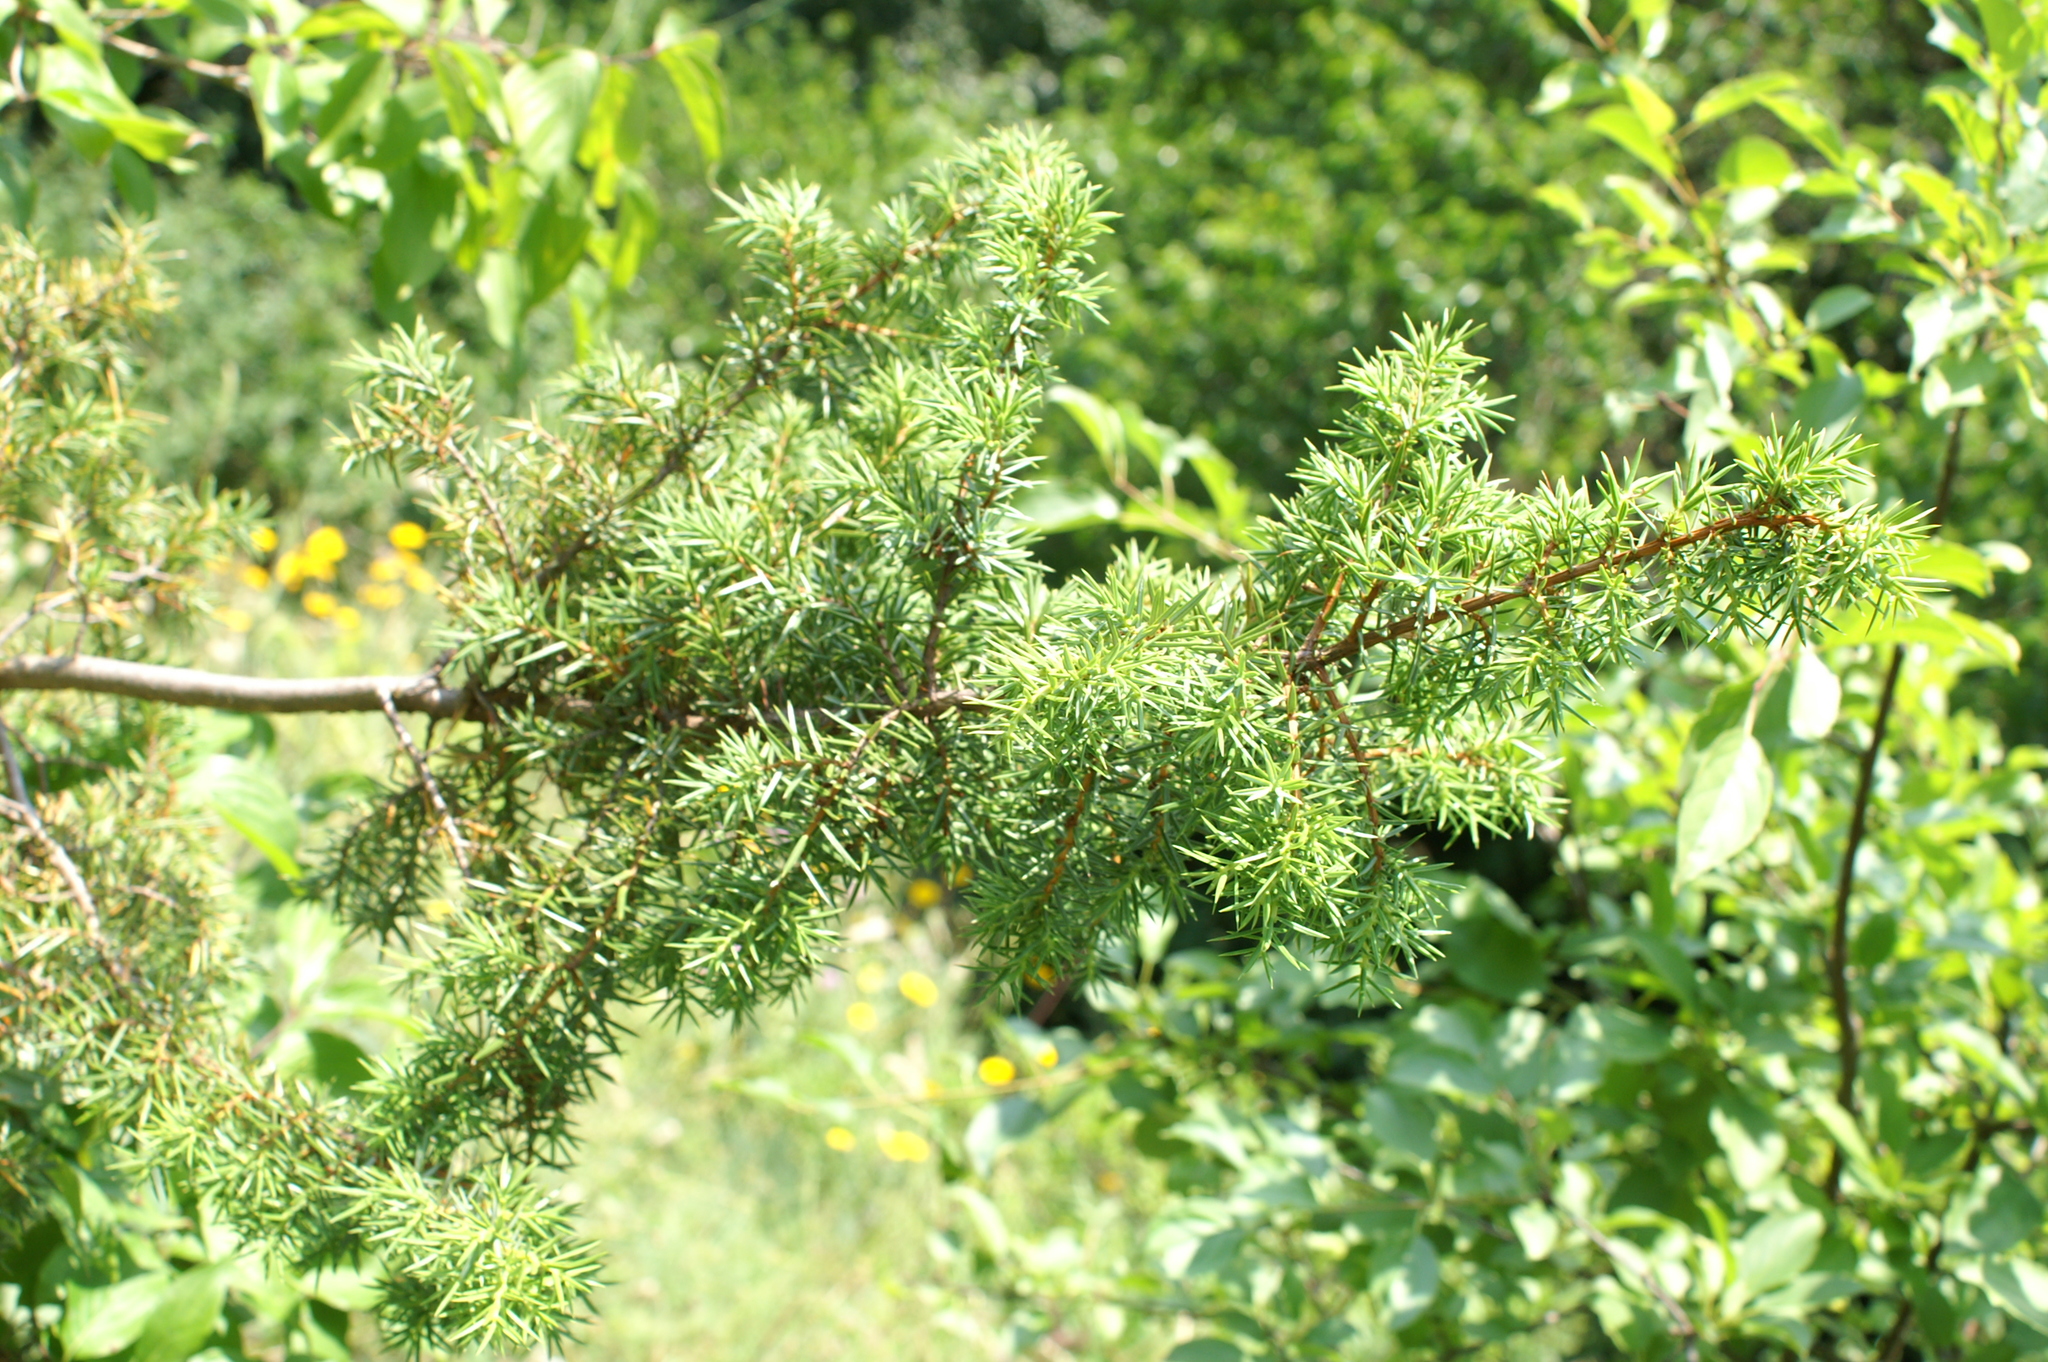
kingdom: Plantae
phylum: Tracheophyta
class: Pinopsida
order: Pinales
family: Cupressaceae
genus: Juniperus
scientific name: Juniperus communis
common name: Common juniper
